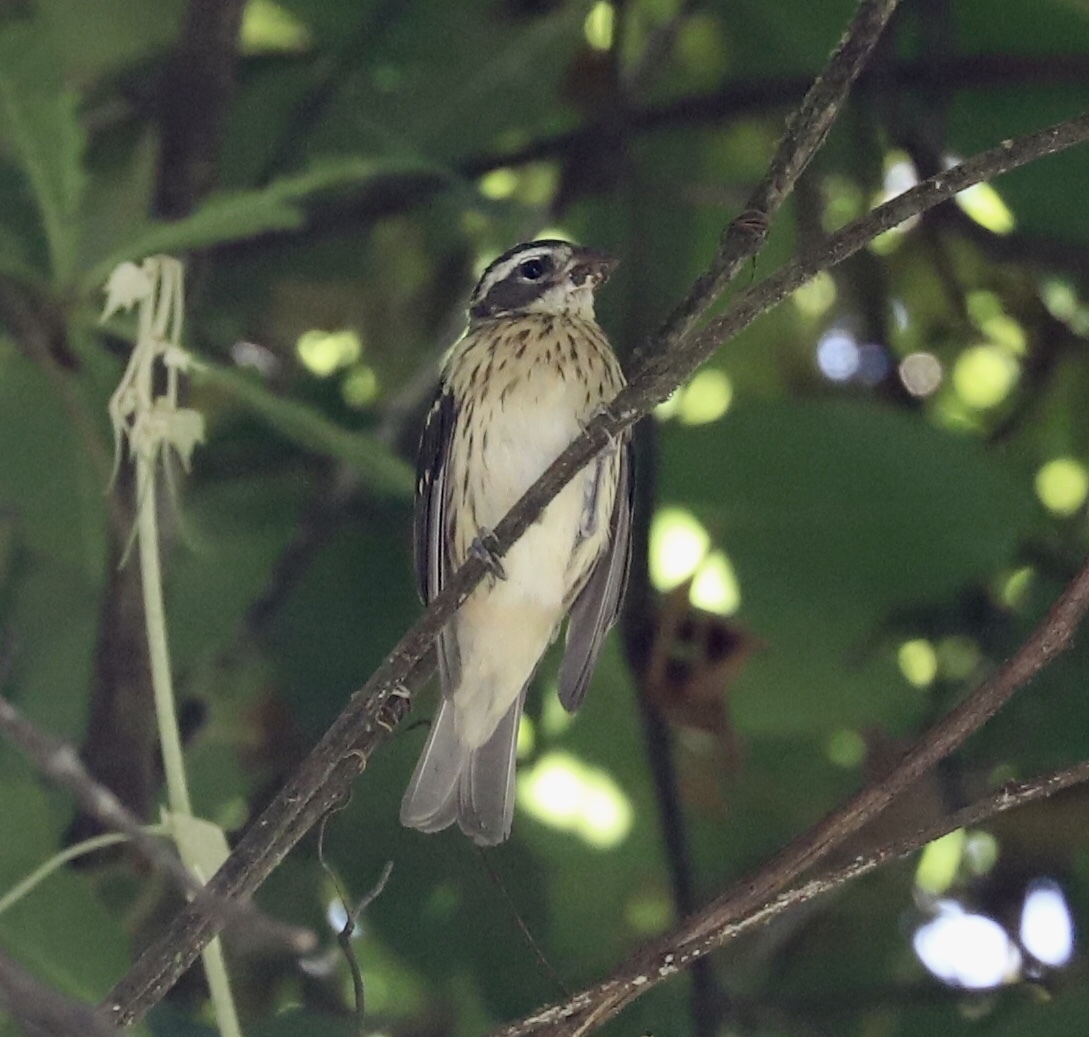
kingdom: Animalia
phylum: Chordata
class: Aves
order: Passeriformes
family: Cardinalidae
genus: Pheucticus
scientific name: Pheucticus ludovicianus
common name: Rose-breasted grosbeak
